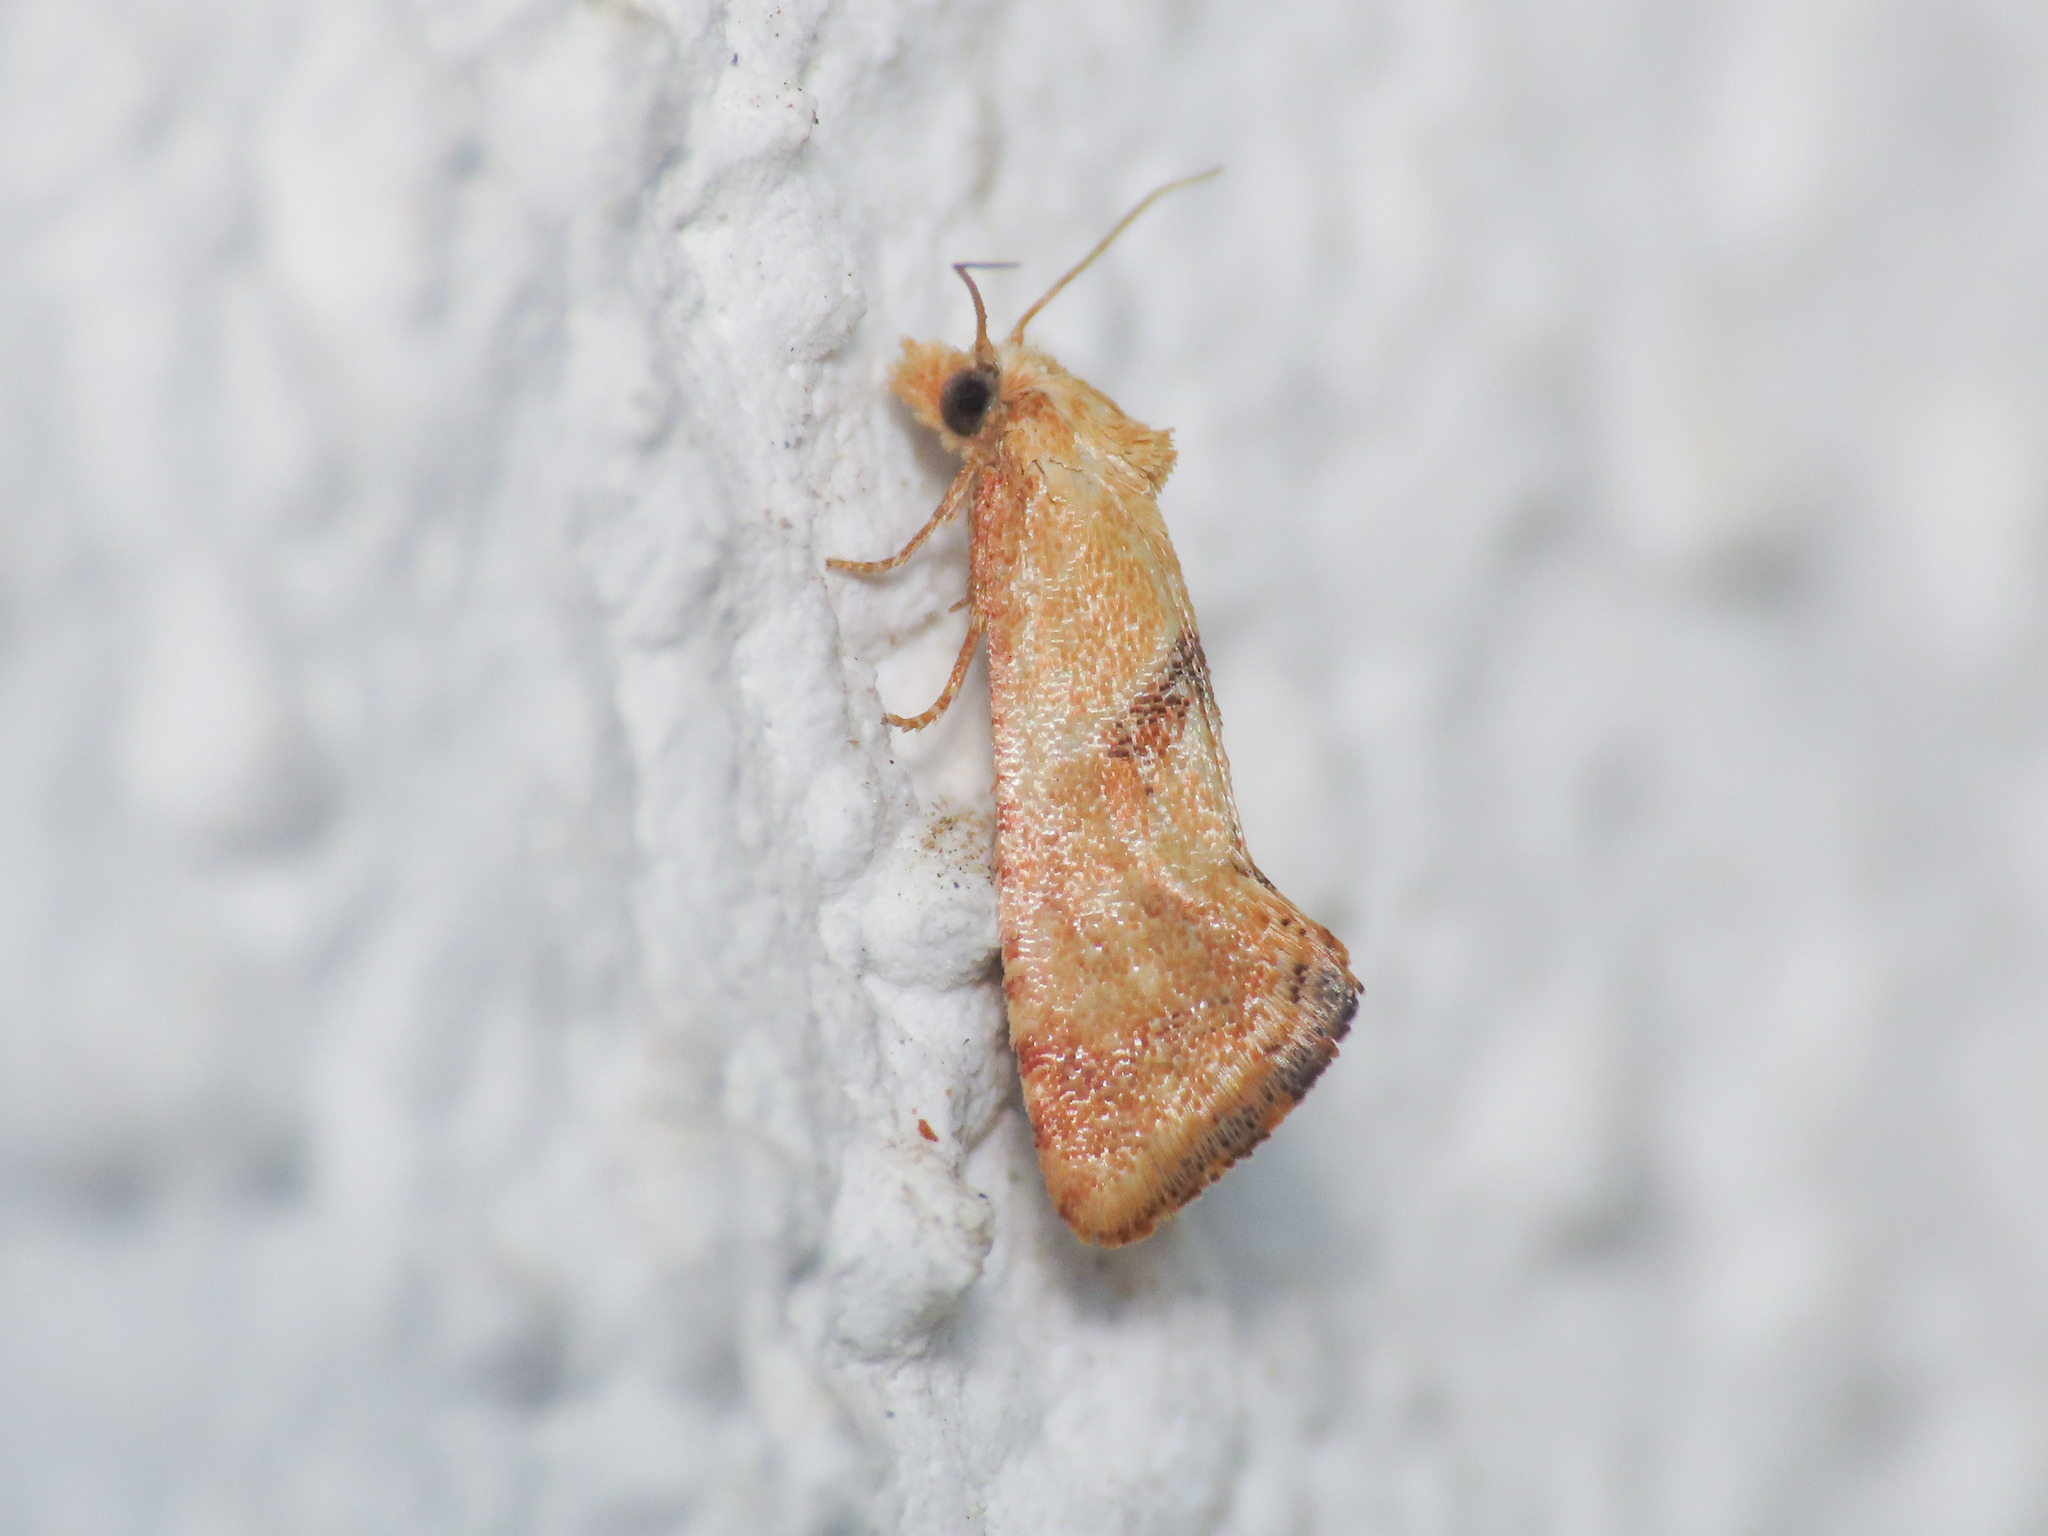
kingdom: Animalia
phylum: Arthropoda
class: Insecta
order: Lepidoptera
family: Tortricidae
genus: Cochylis
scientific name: Cochylis roseana
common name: Rosy conch
